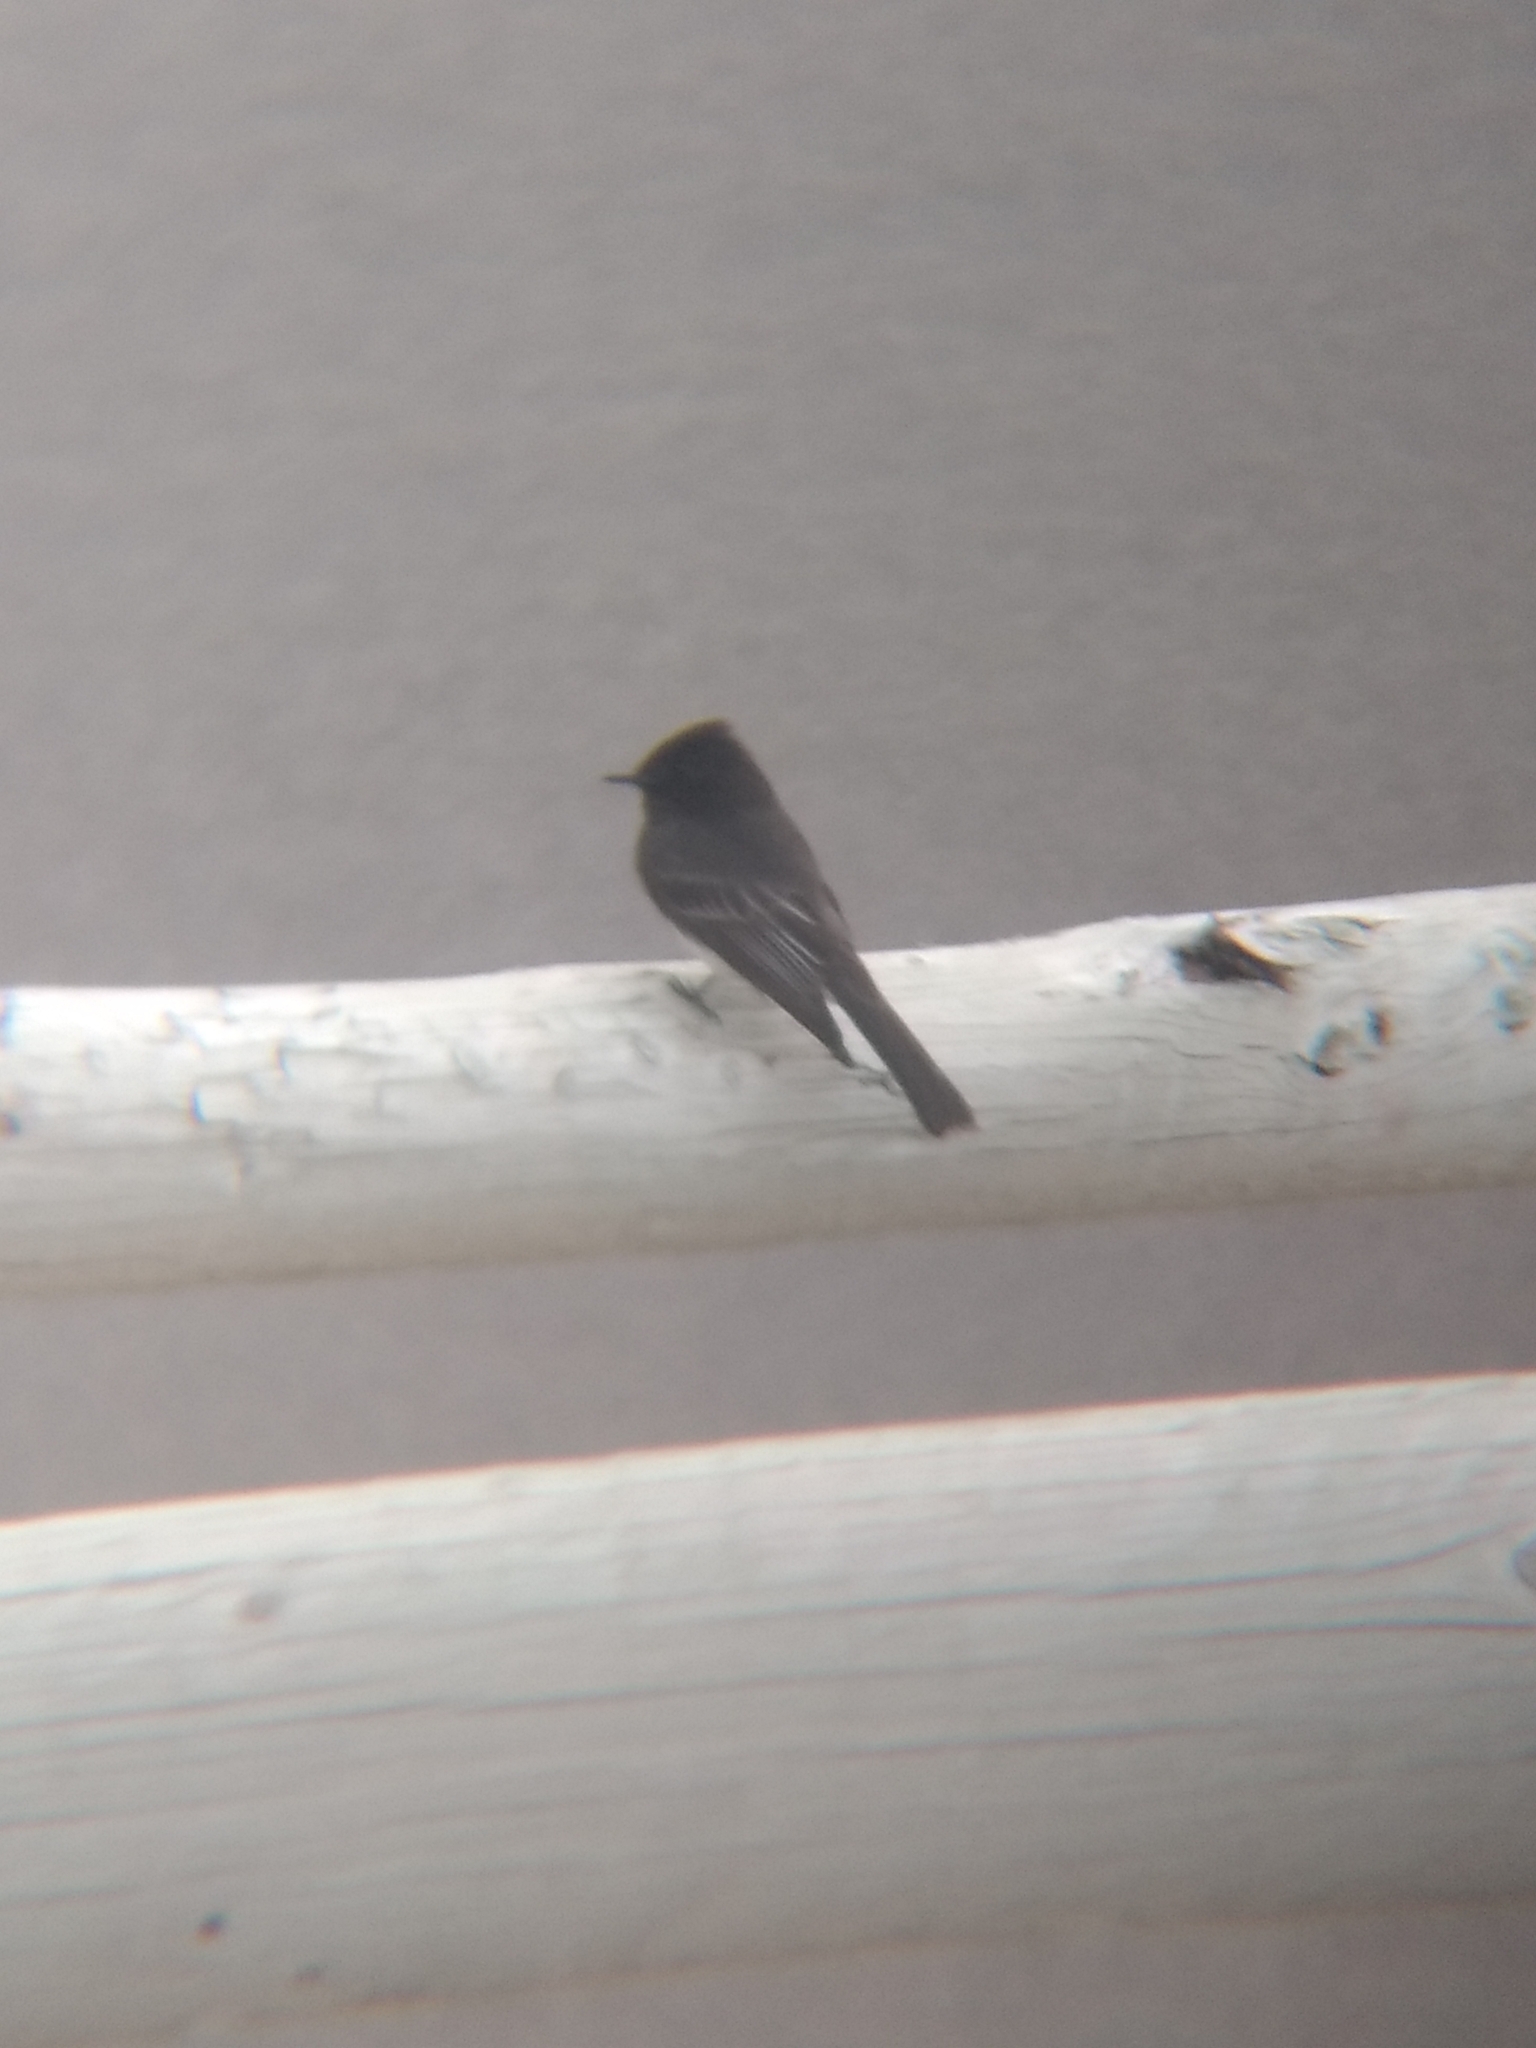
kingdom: Animalia
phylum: Chordata
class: Aves
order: Passeriformes
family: Tyrannidae
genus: Sayornis
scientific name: Sayornis nigricans
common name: Black phoebe
